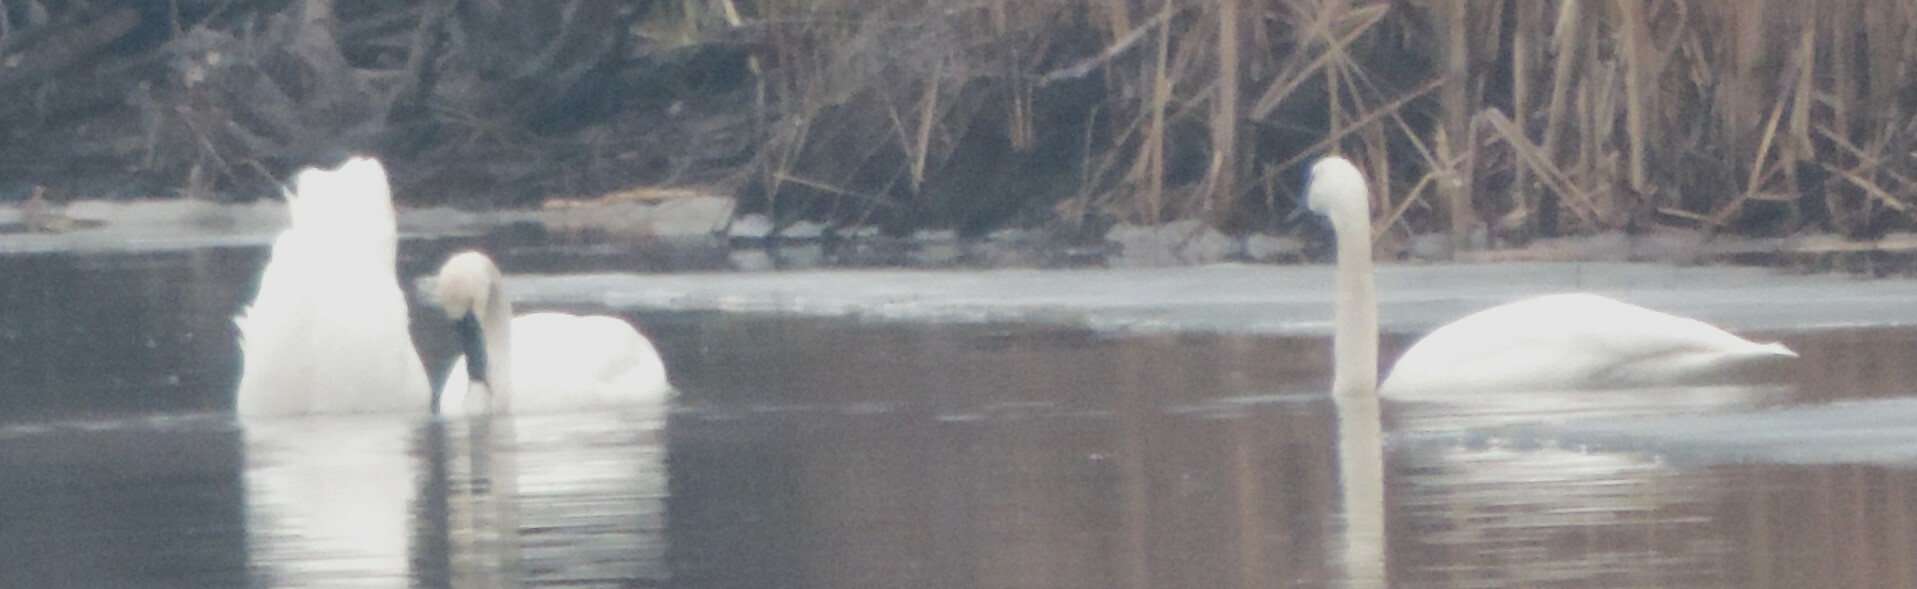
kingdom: Animalia
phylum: Chordata
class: Aves
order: Anseriformes
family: Anatidae
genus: Cygnus
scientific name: Cygnus buccinator
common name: Trumpeter swan
